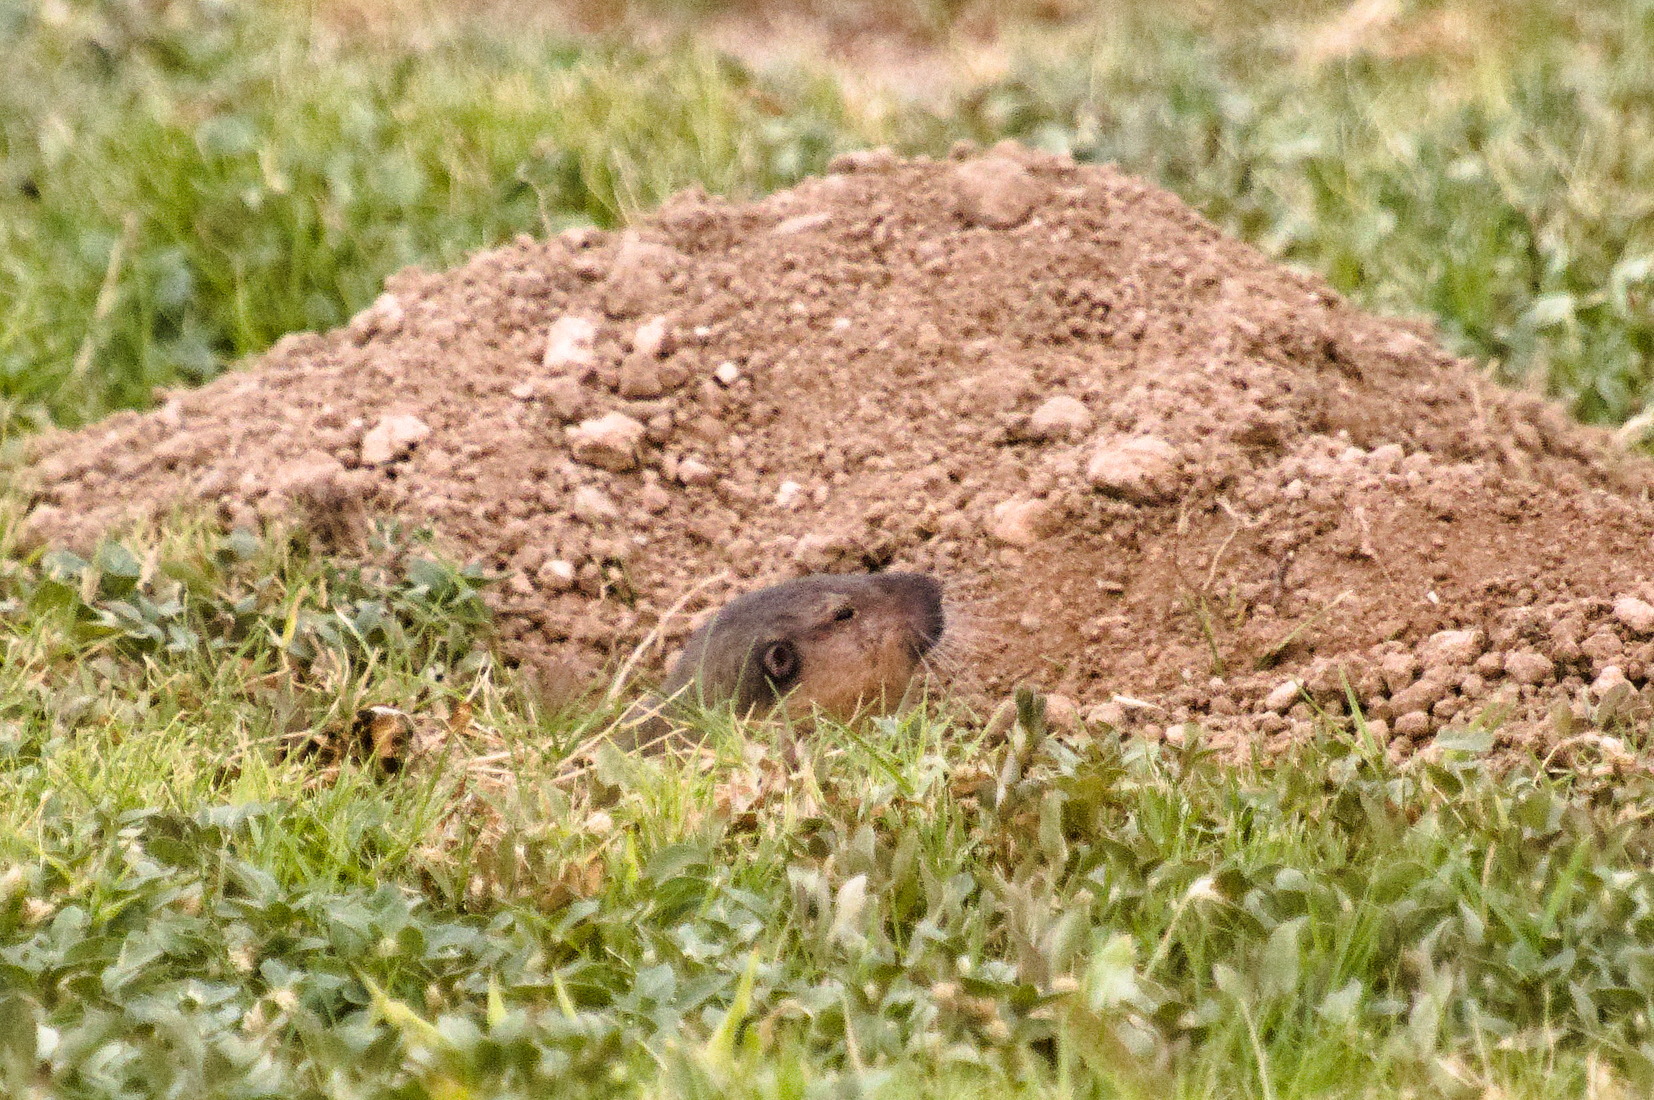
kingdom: Animalia
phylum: Chordata
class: Mammalia
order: Rodentia
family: Geomyidae
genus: Thomomys
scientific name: Thomomys bottae
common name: Botta's pocket gopher
